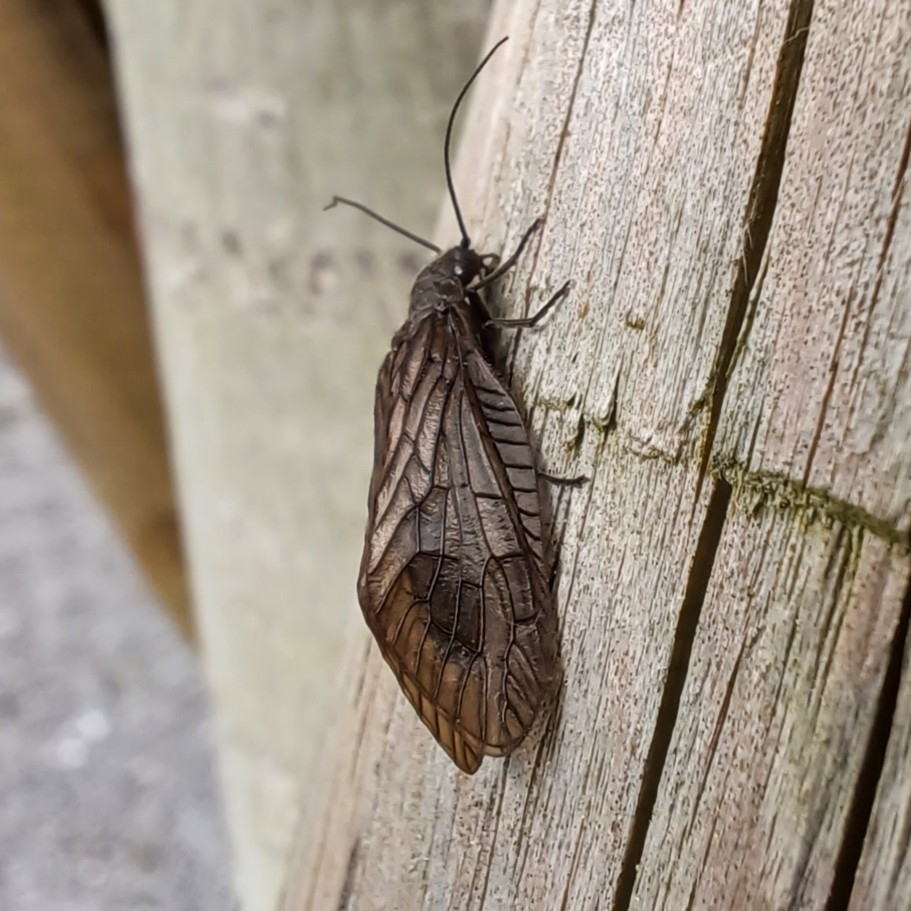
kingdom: Animalia
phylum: Arthropoda
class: Insecta
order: Megaloptera
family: Sialidae
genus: Sialis
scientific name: Sialis
